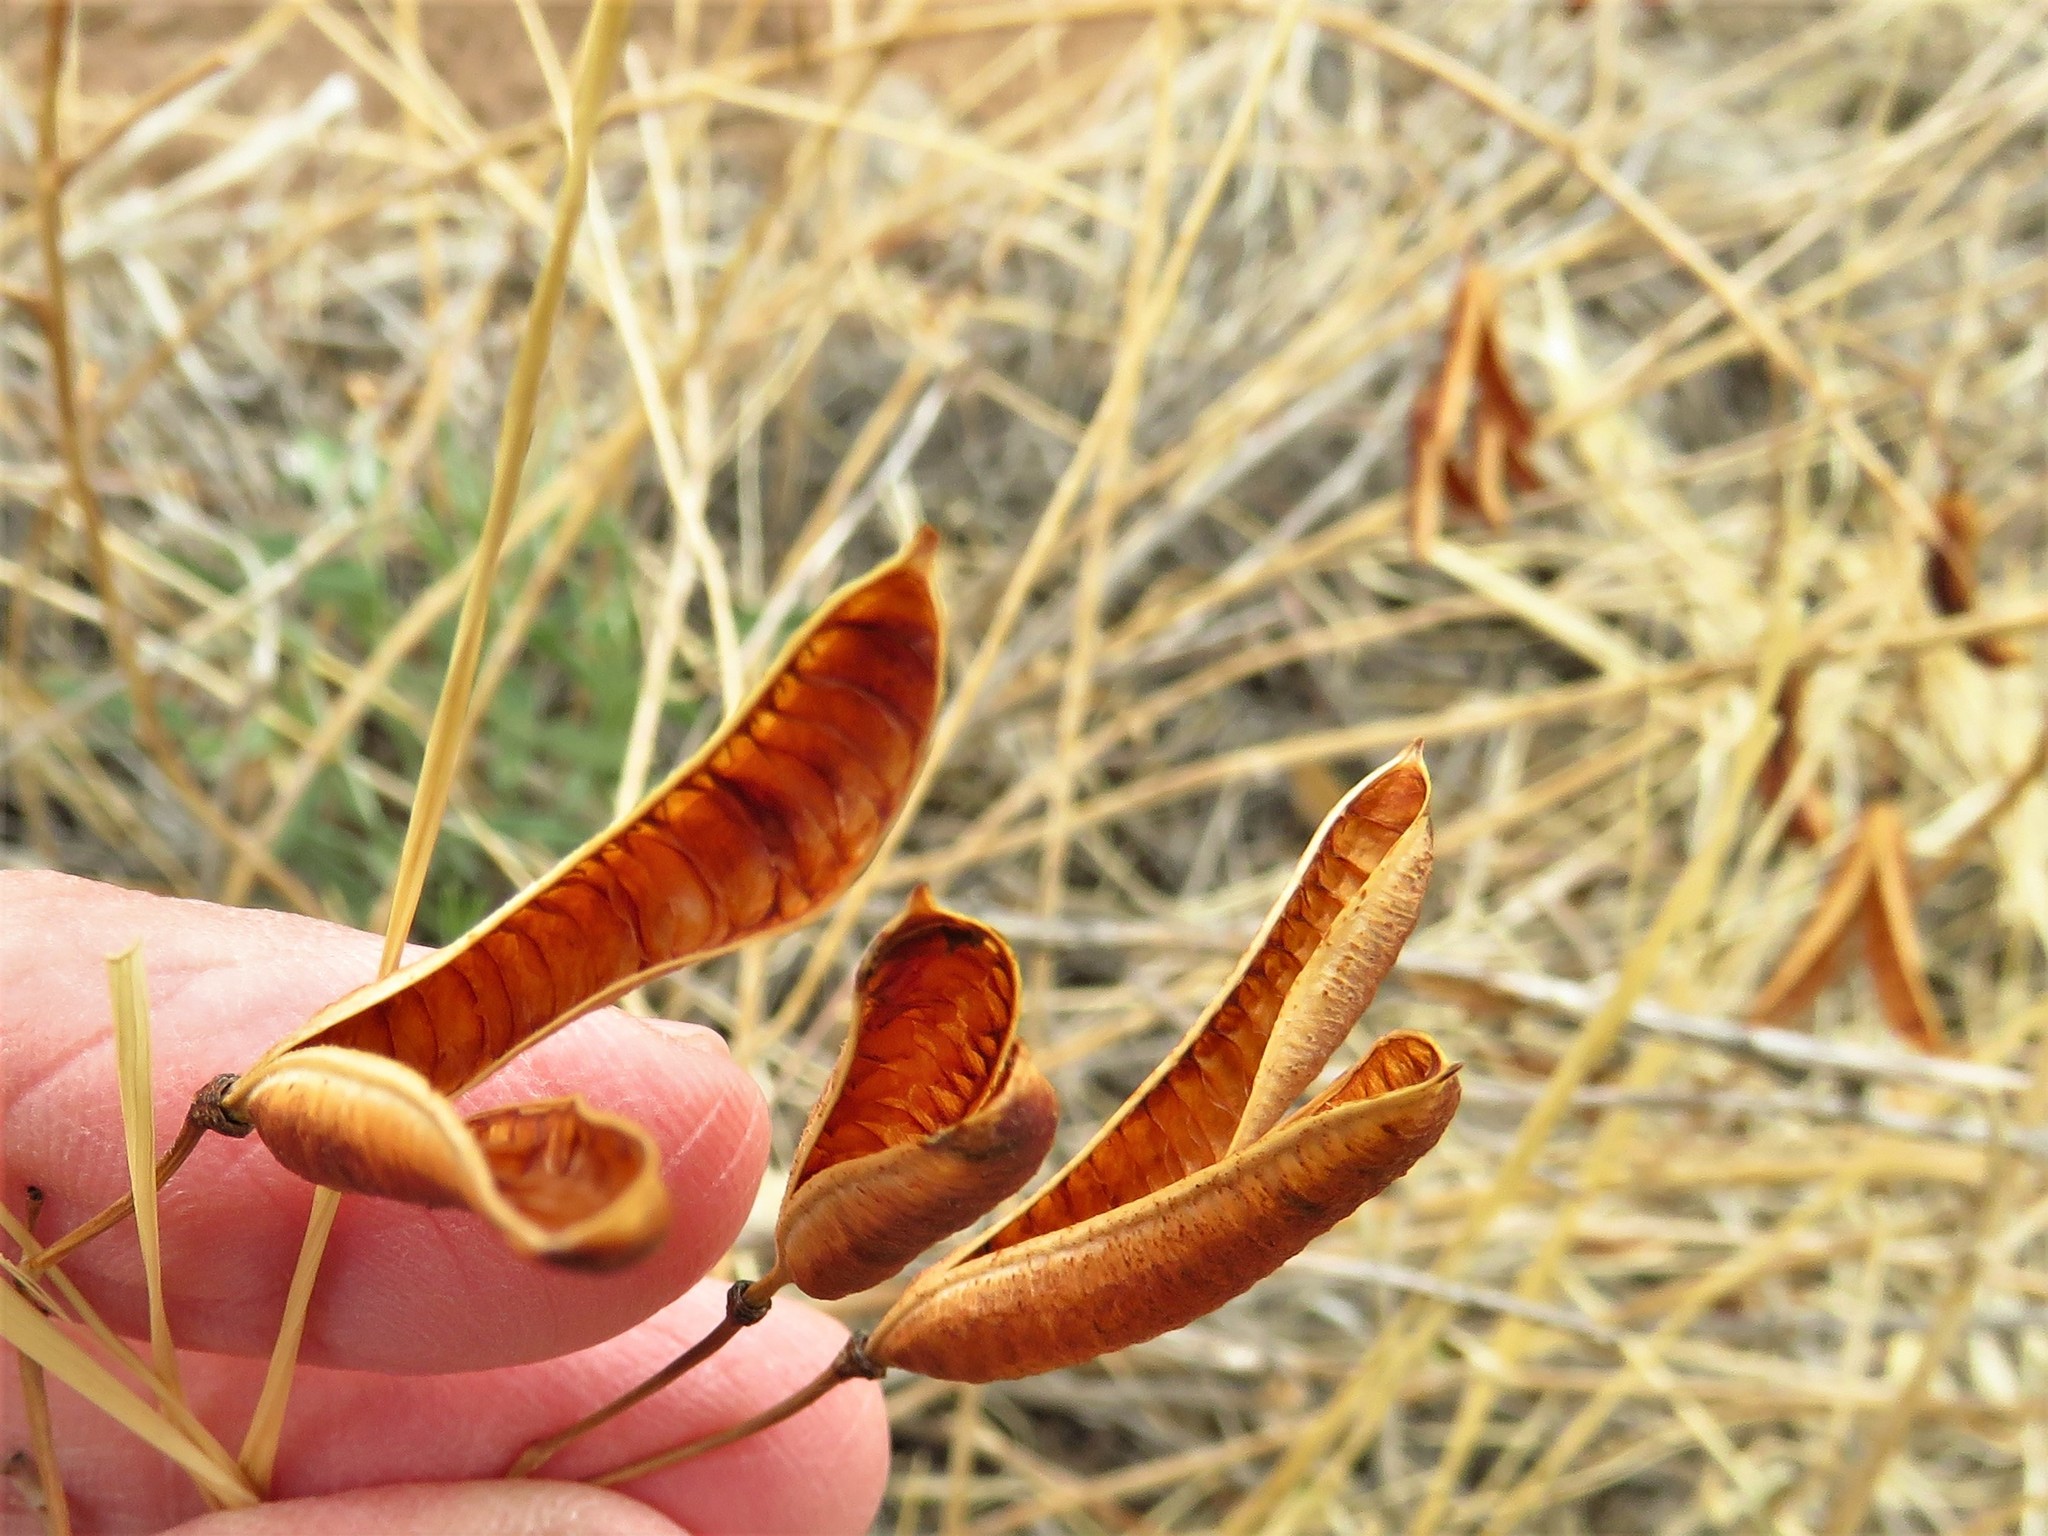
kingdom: Plantae
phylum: Tracheophyta
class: Magnoliopsida
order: Fabales
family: Fabaceae
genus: Senna
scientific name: Senna roemeriana
